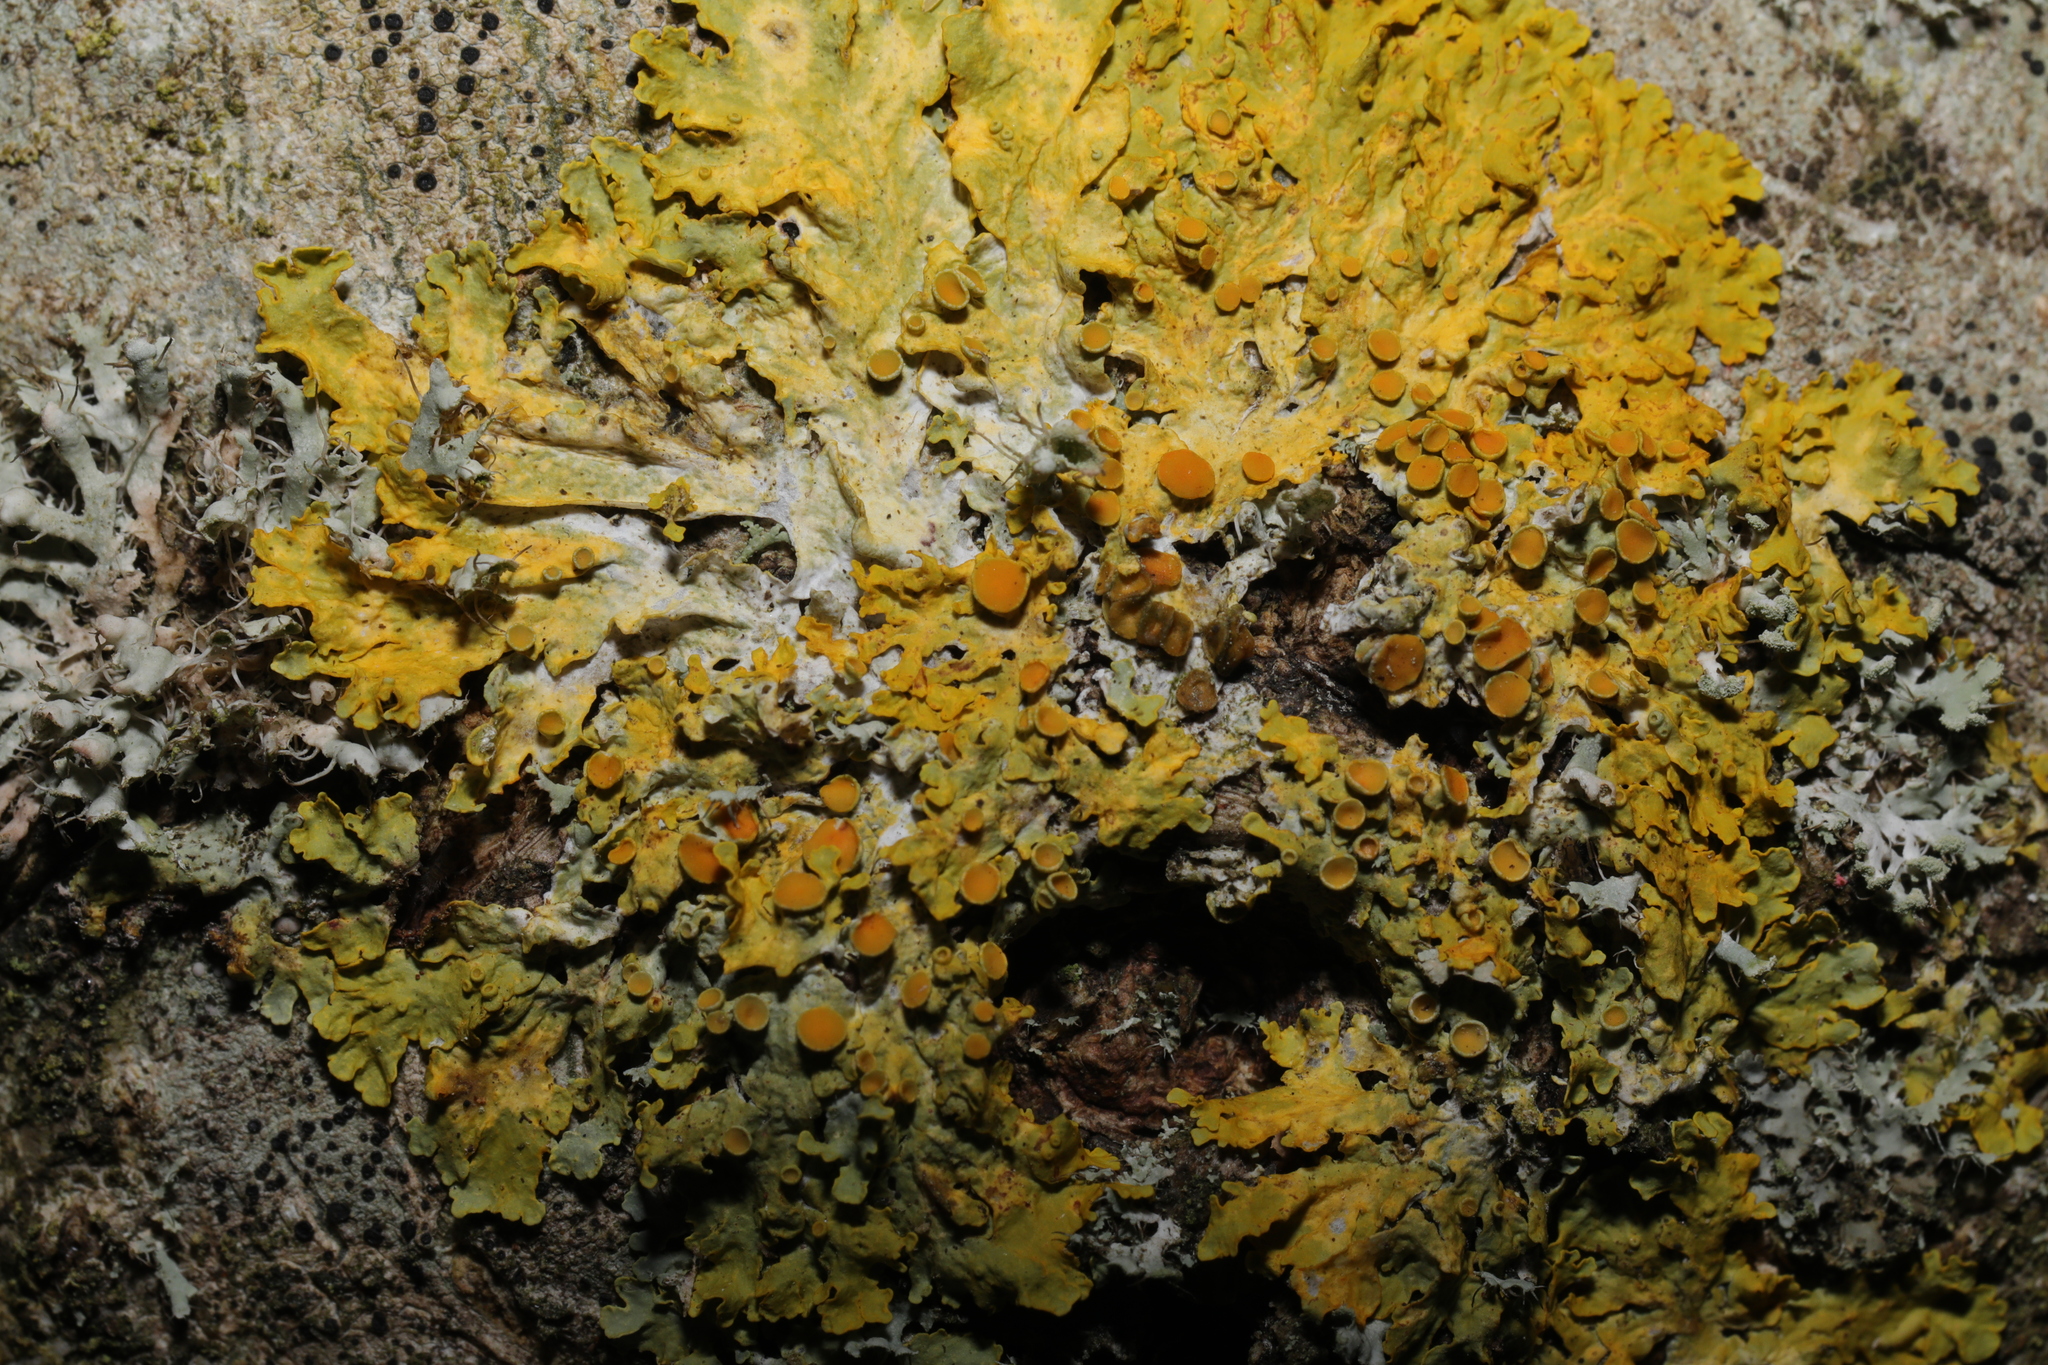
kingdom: Fungi
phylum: Ascomycota
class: Lecanoromycetes
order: Teloschistales
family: Teloschistaceae
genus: Xanthoria
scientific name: Xanthoria parietina
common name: Common orange lichen
